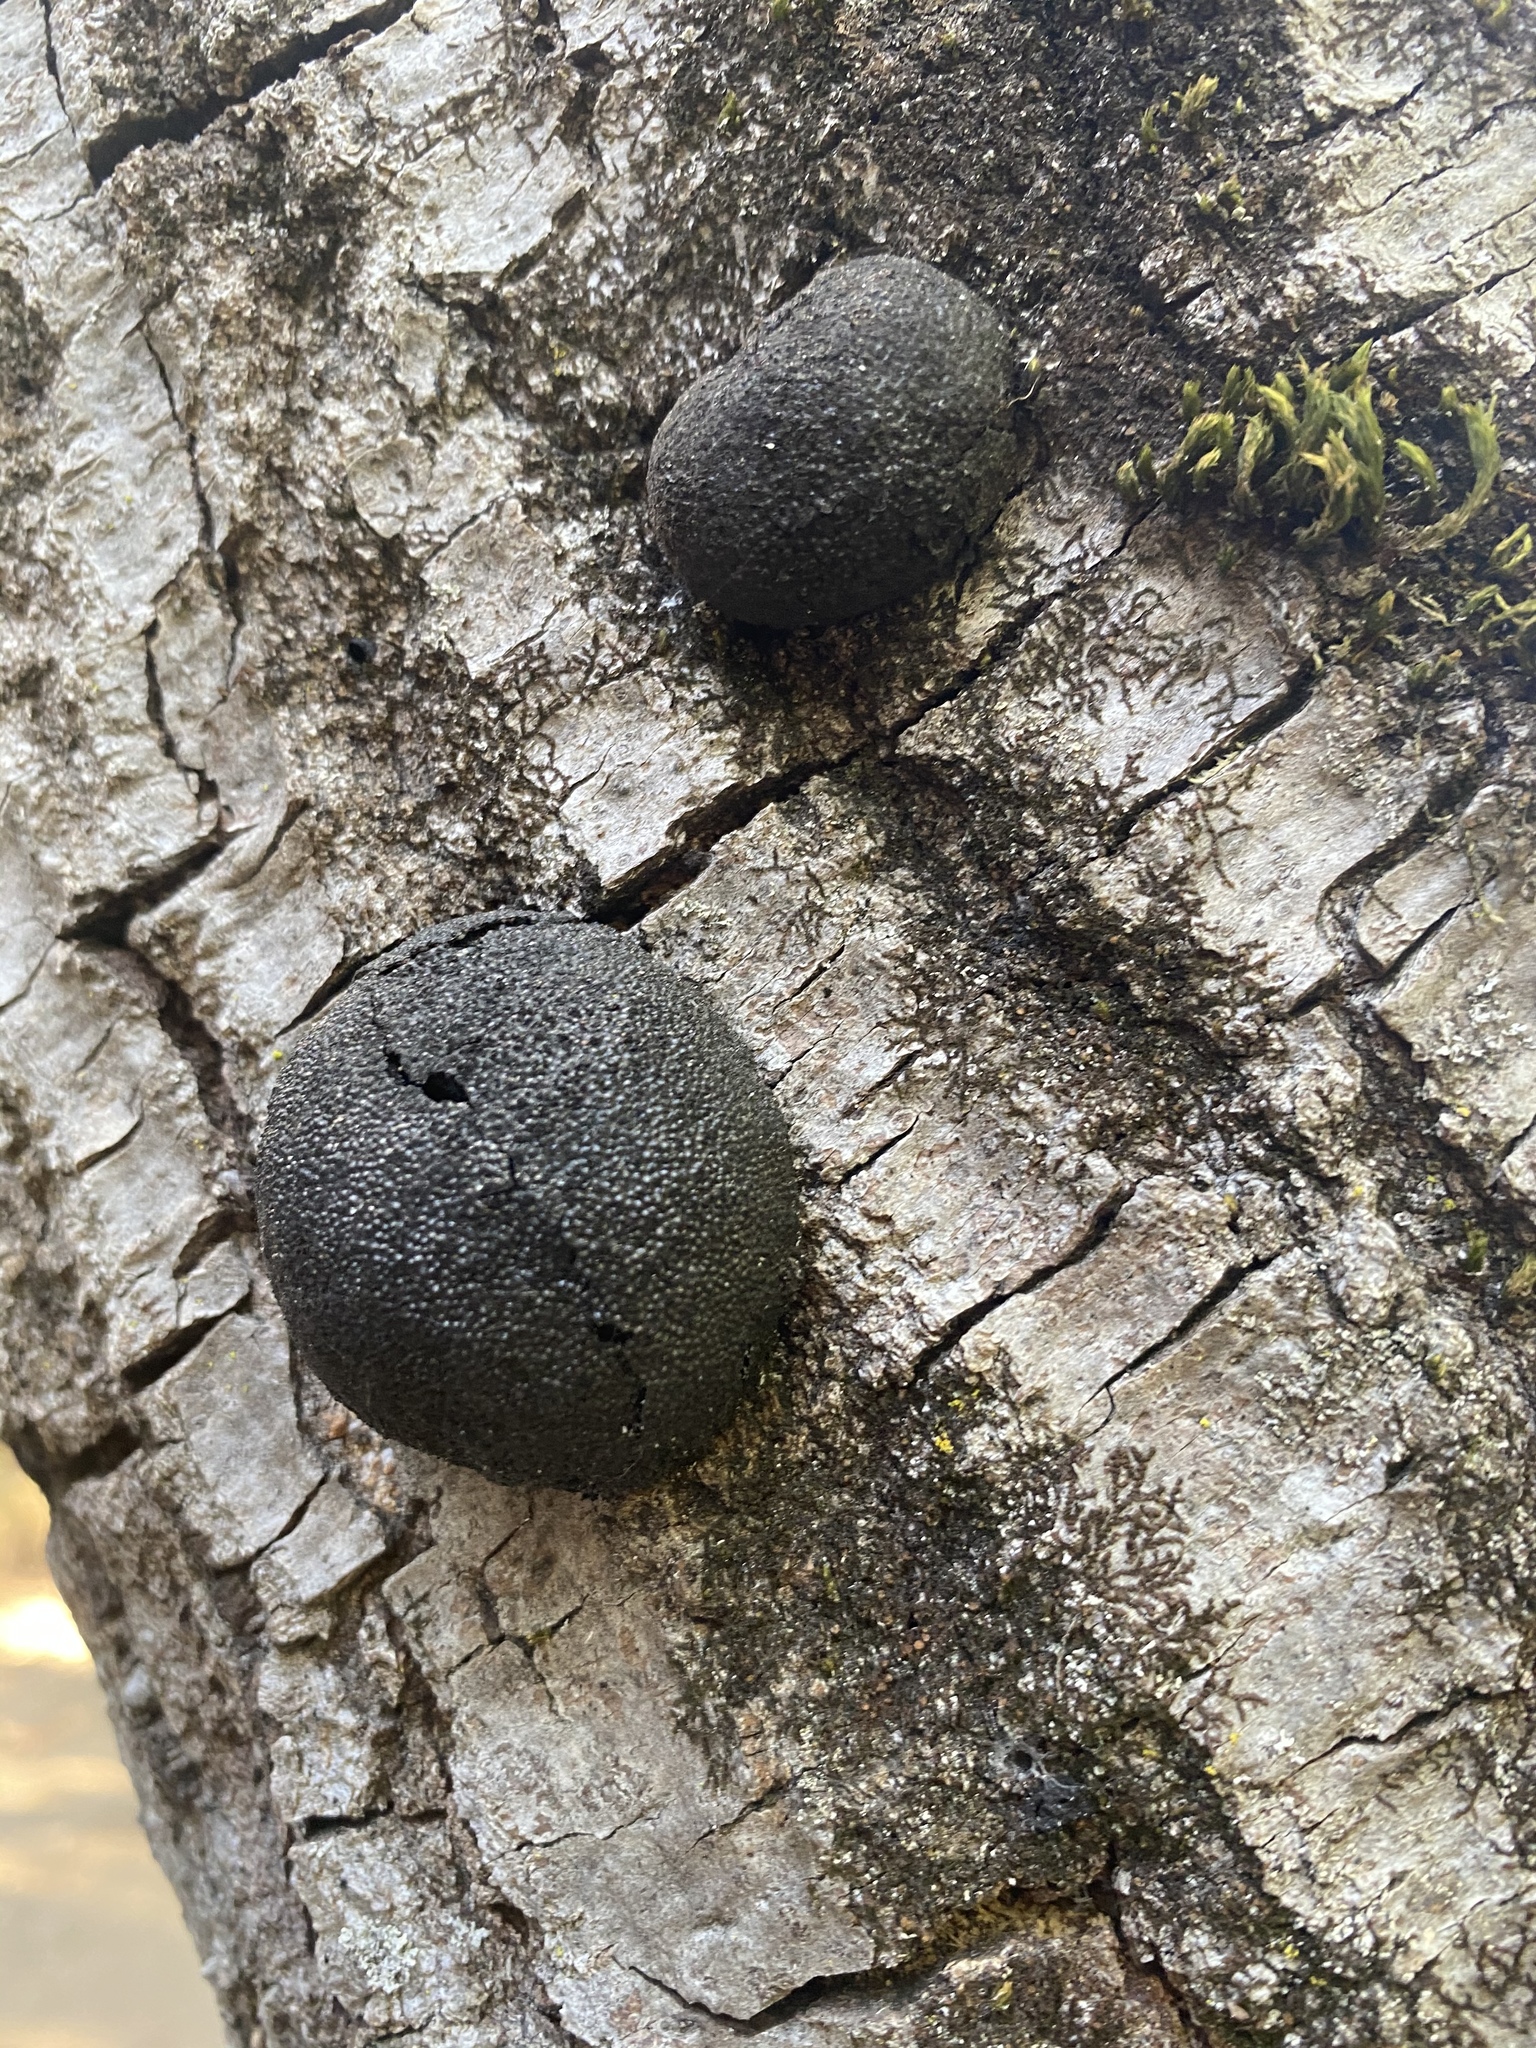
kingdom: Fungi
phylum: Ascomycota
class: Sordariomycetes
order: Xylariales
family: Hypoxylaceae
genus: Annulohypoxylon
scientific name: Annulohypoxylon thouarsianum
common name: Cramp balls
